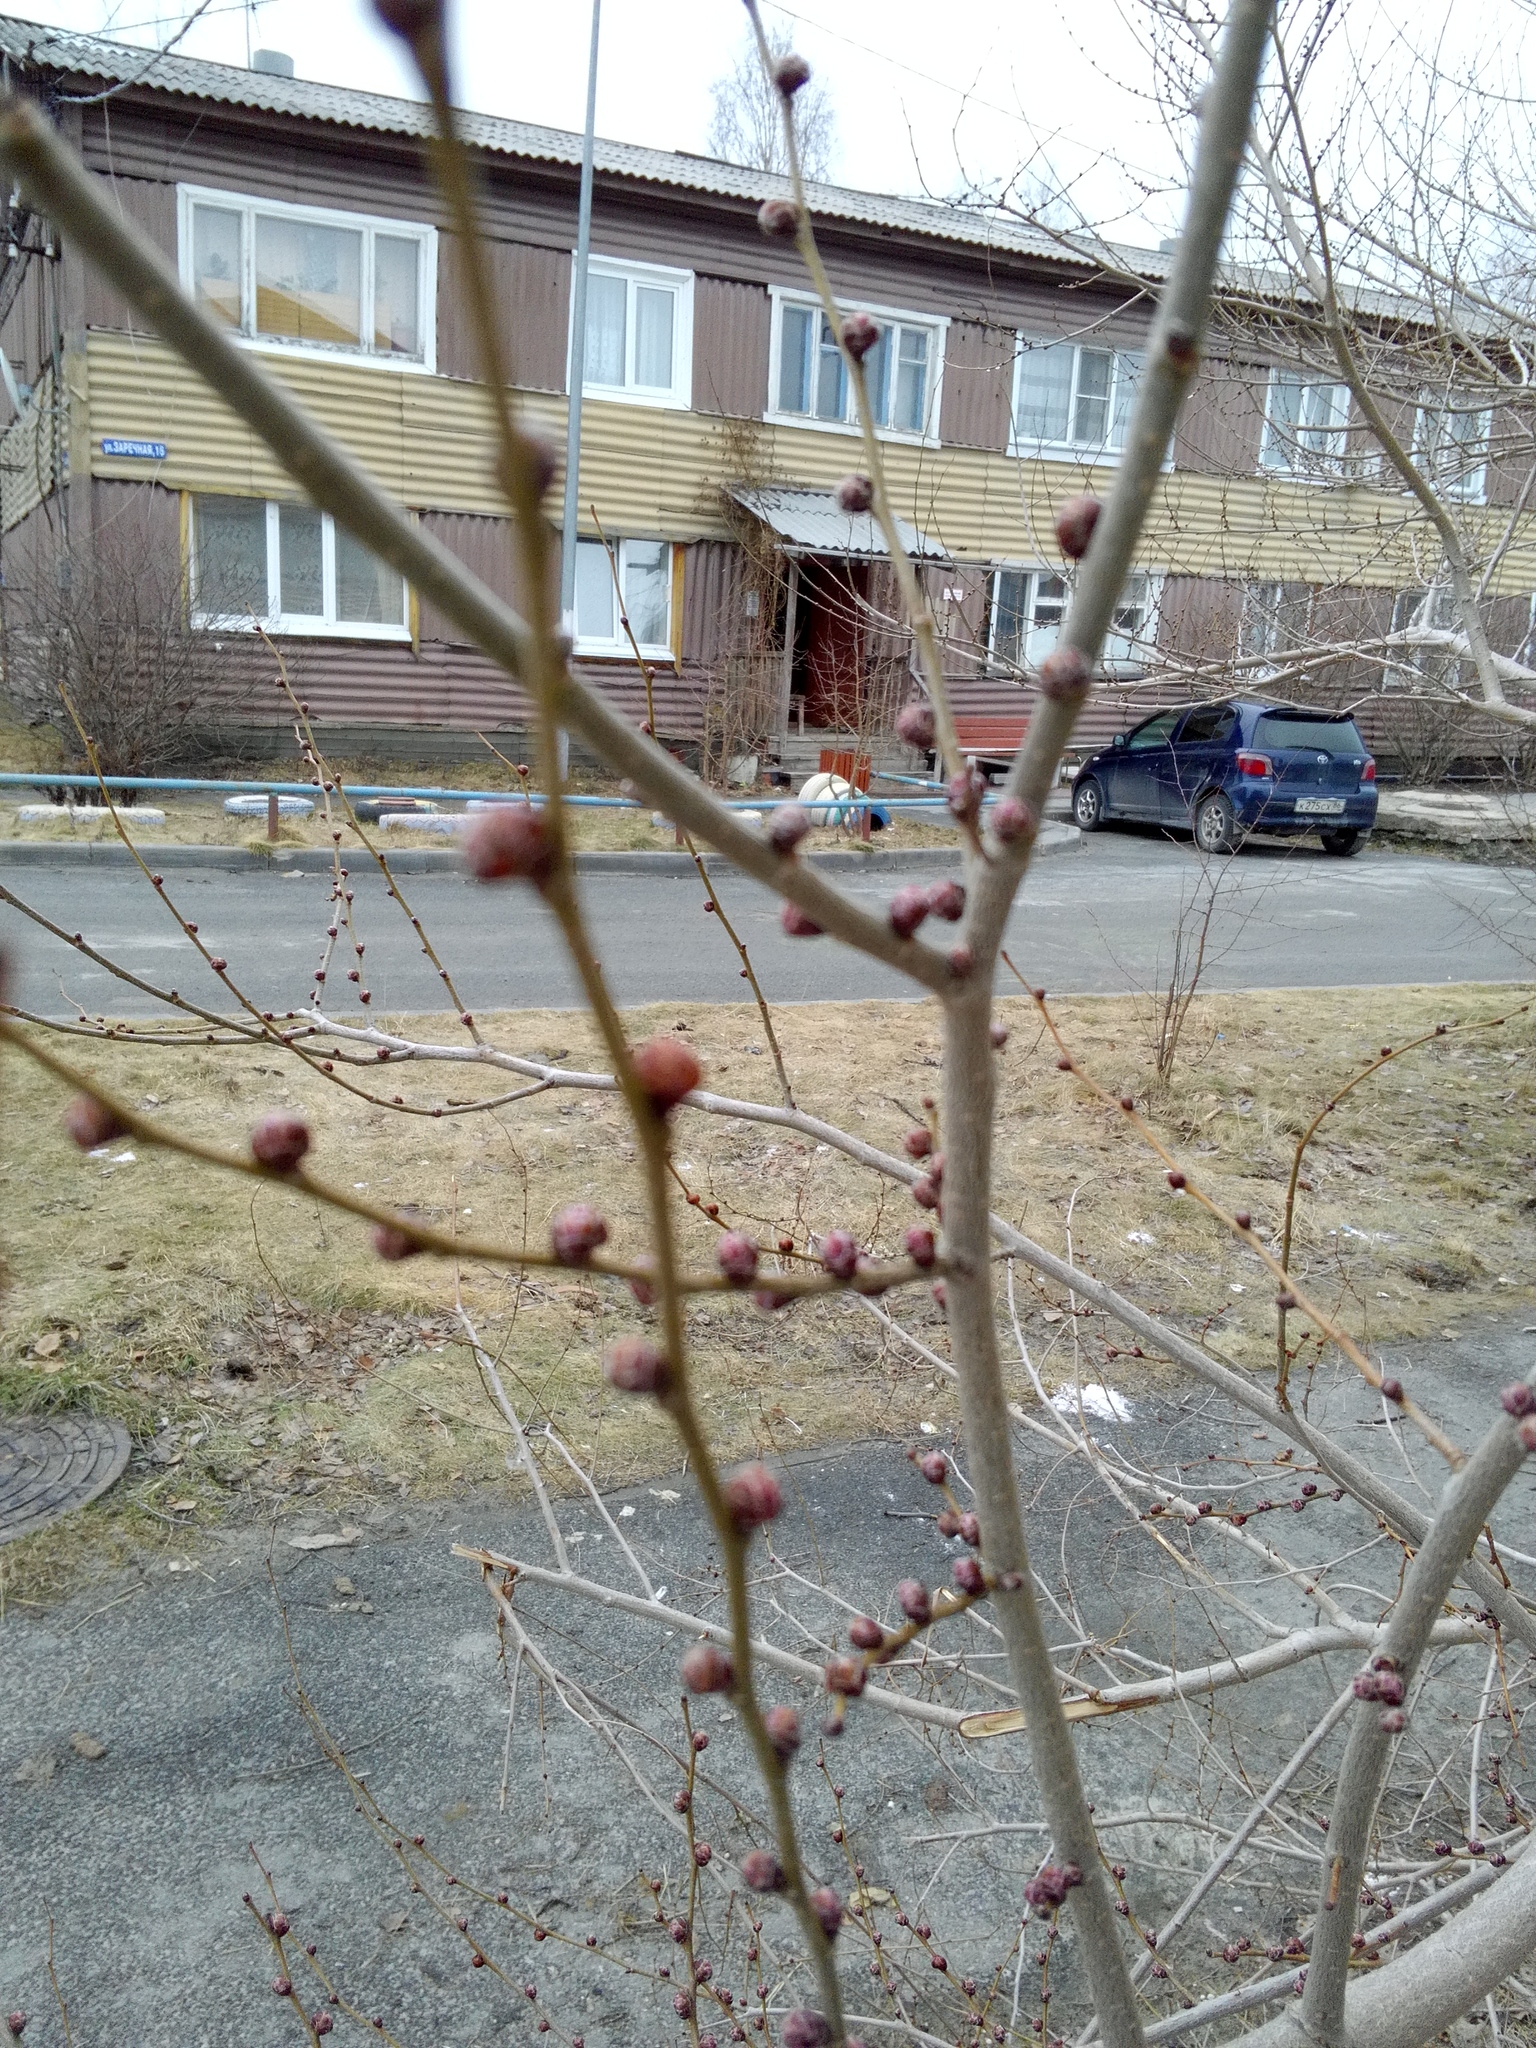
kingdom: Plantae
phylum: Tracheophyta
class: Magnoliopsida
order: Rosales
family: Ulmaceae
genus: Ulmus
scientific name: Ulmus pumila
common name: Siberian elm
